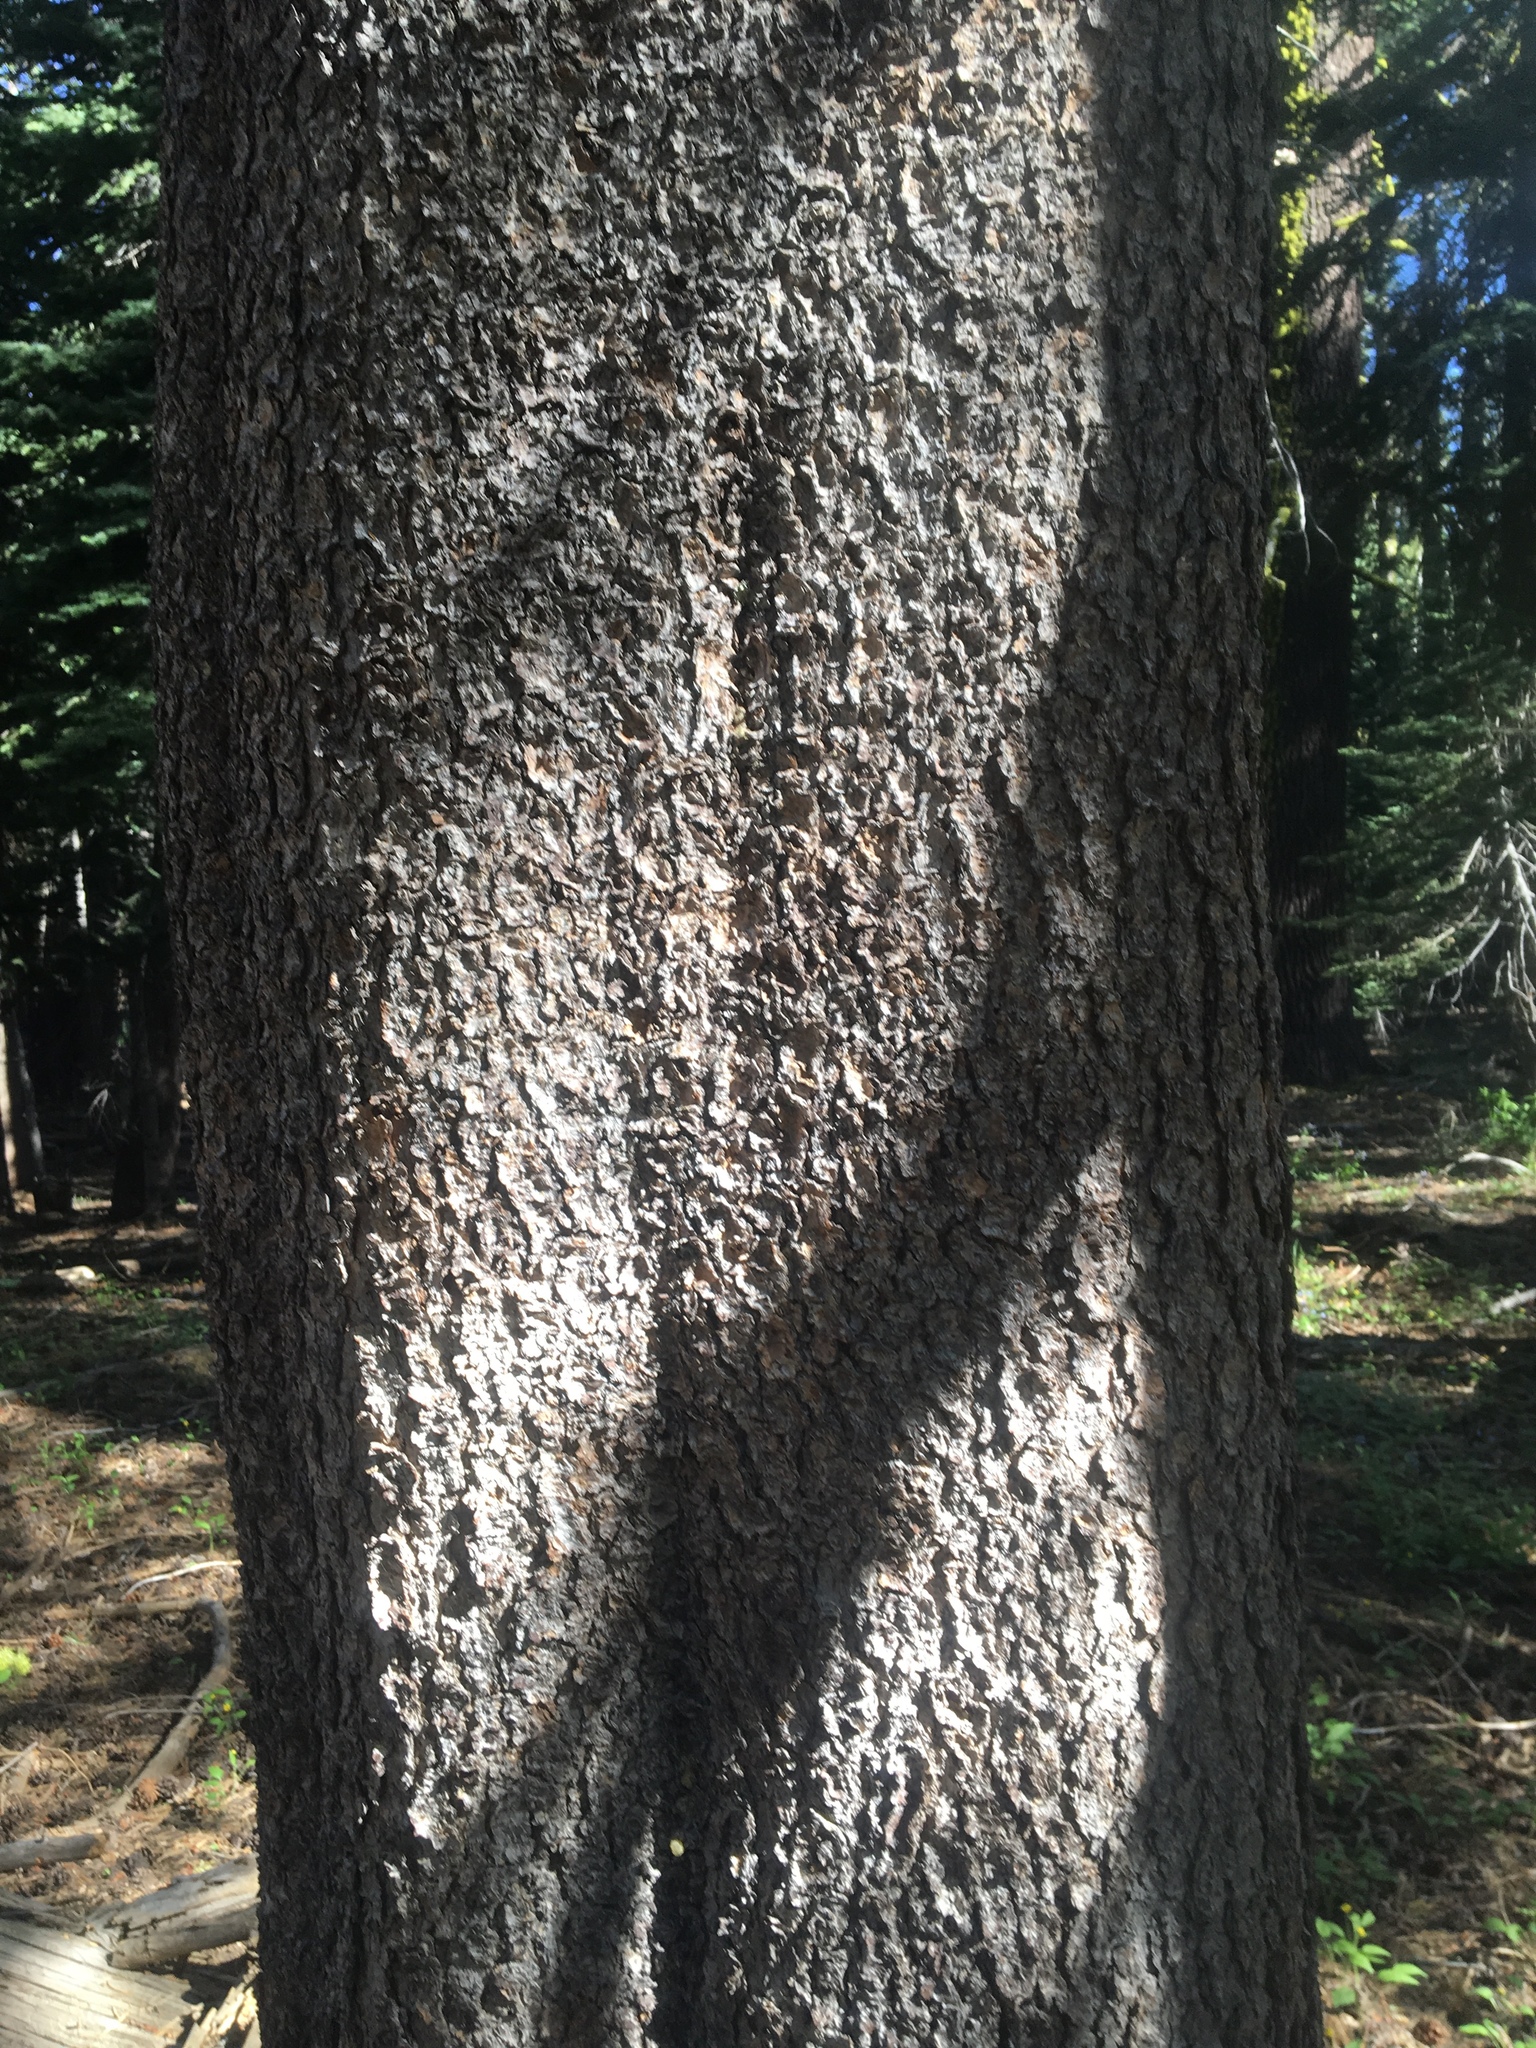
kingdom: Plantae
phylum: Tracheophyta
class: Pinopsida
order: Pinales
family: Pinaceae
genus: Pinus
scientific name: Pinus contorta
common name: Lodgepole pine
